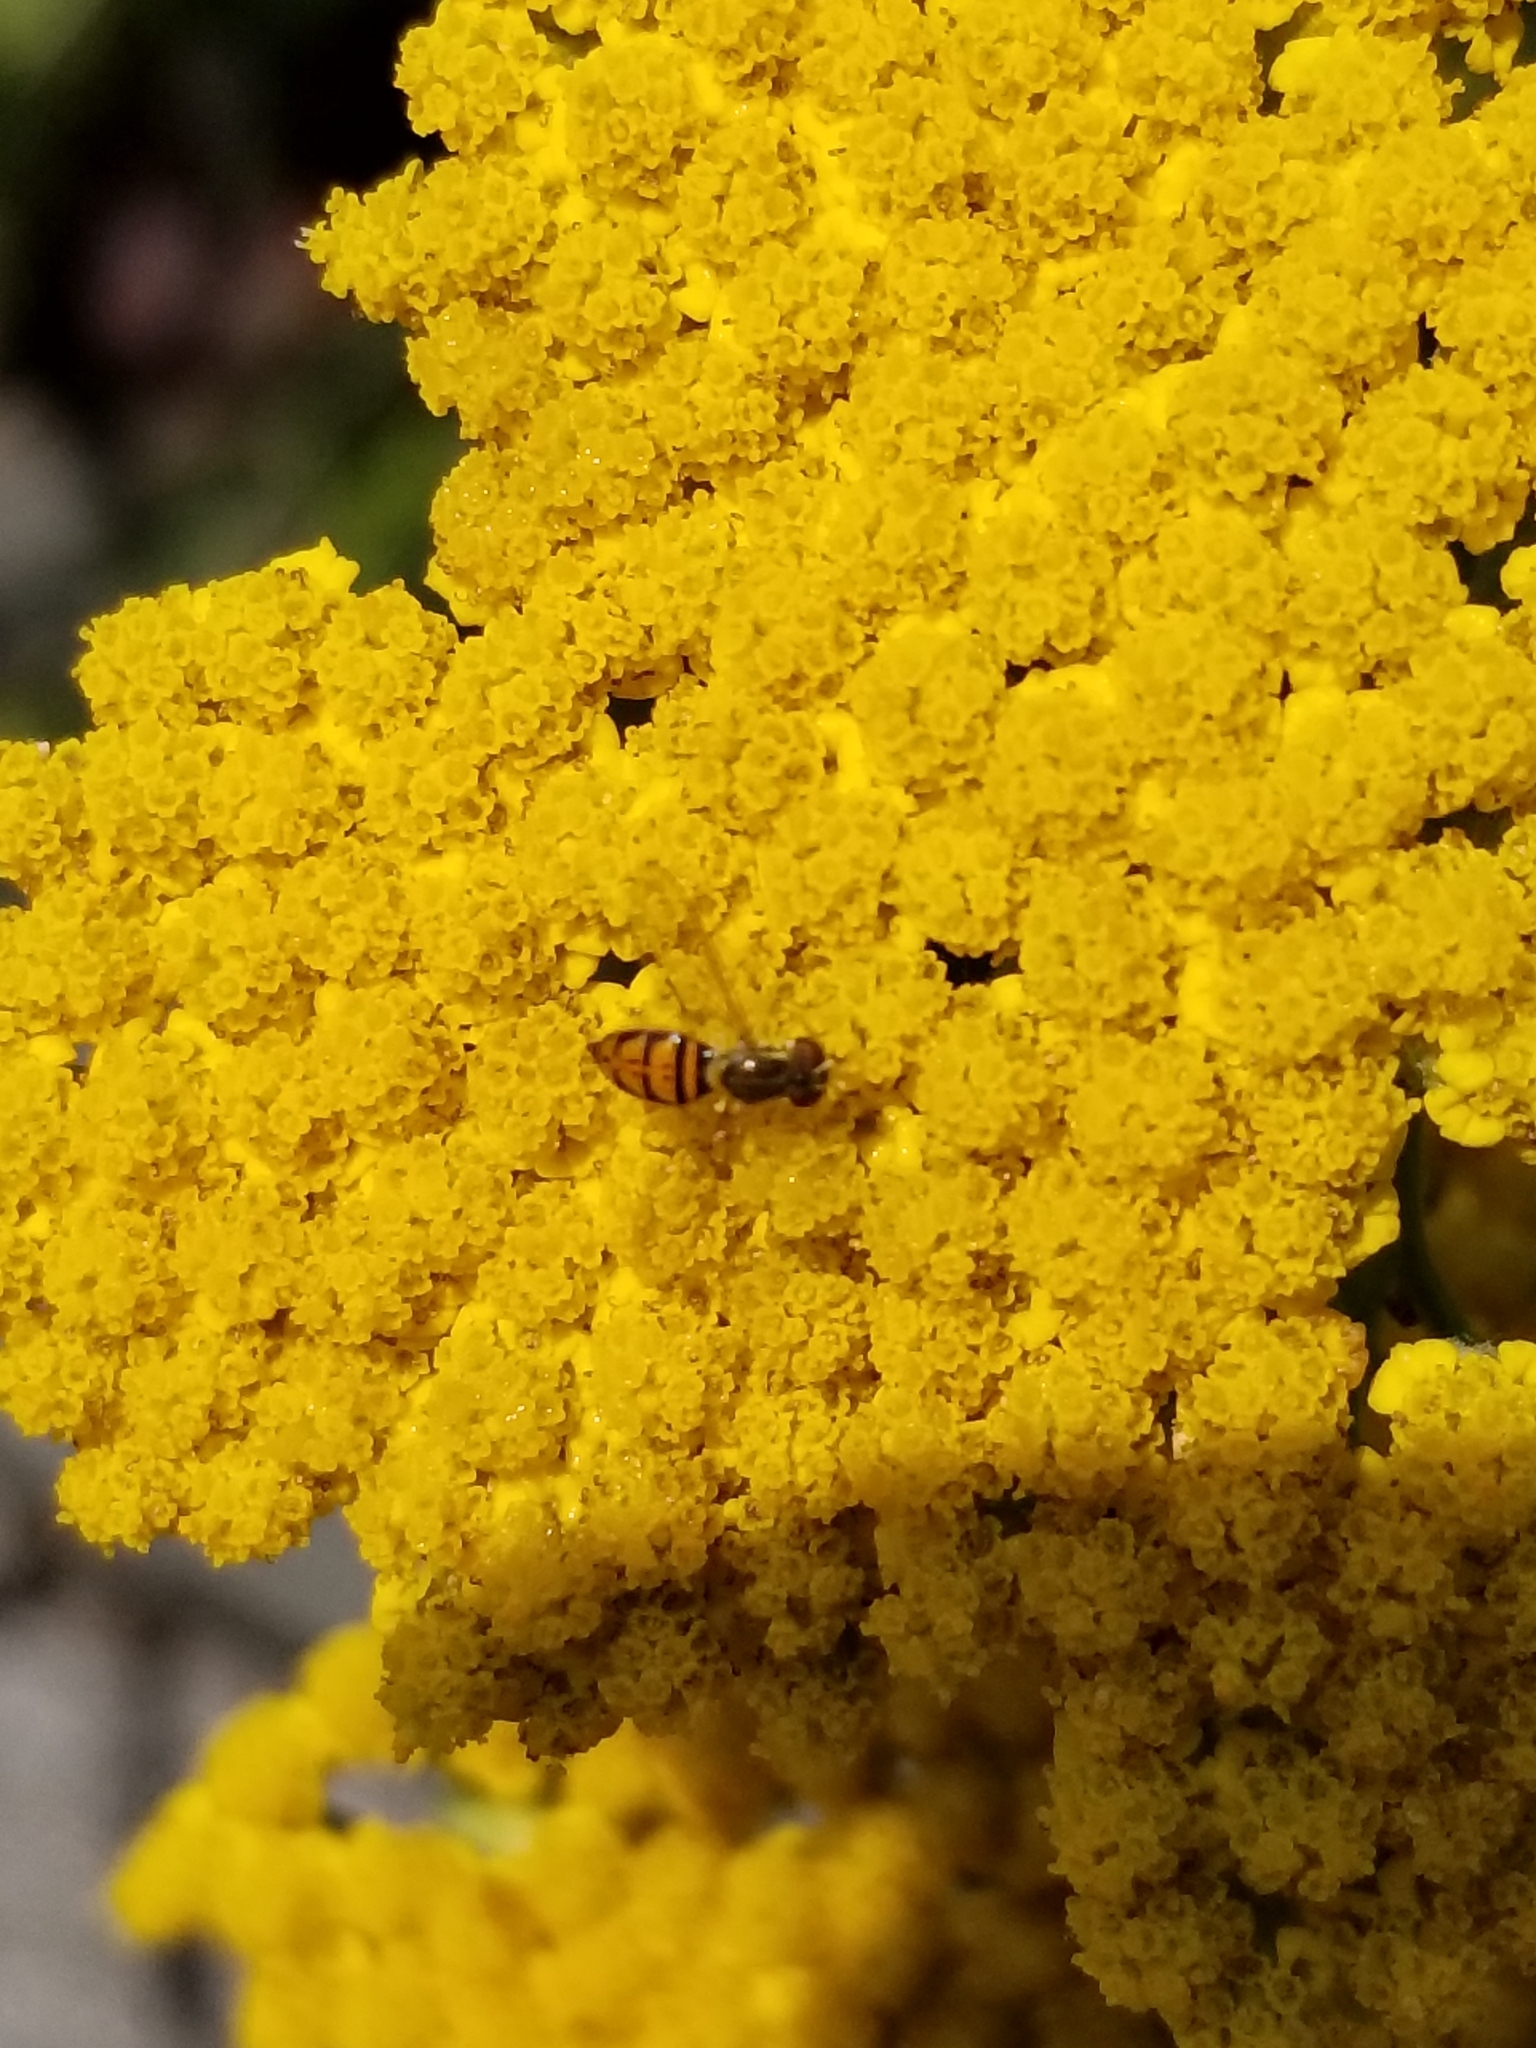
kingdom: Animalia
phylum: Arthropoda
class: Insecta
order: Diptera
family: Syrphidae
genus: Toxomerus
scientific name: Toxomerus marginatus
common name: Syrphid fly
